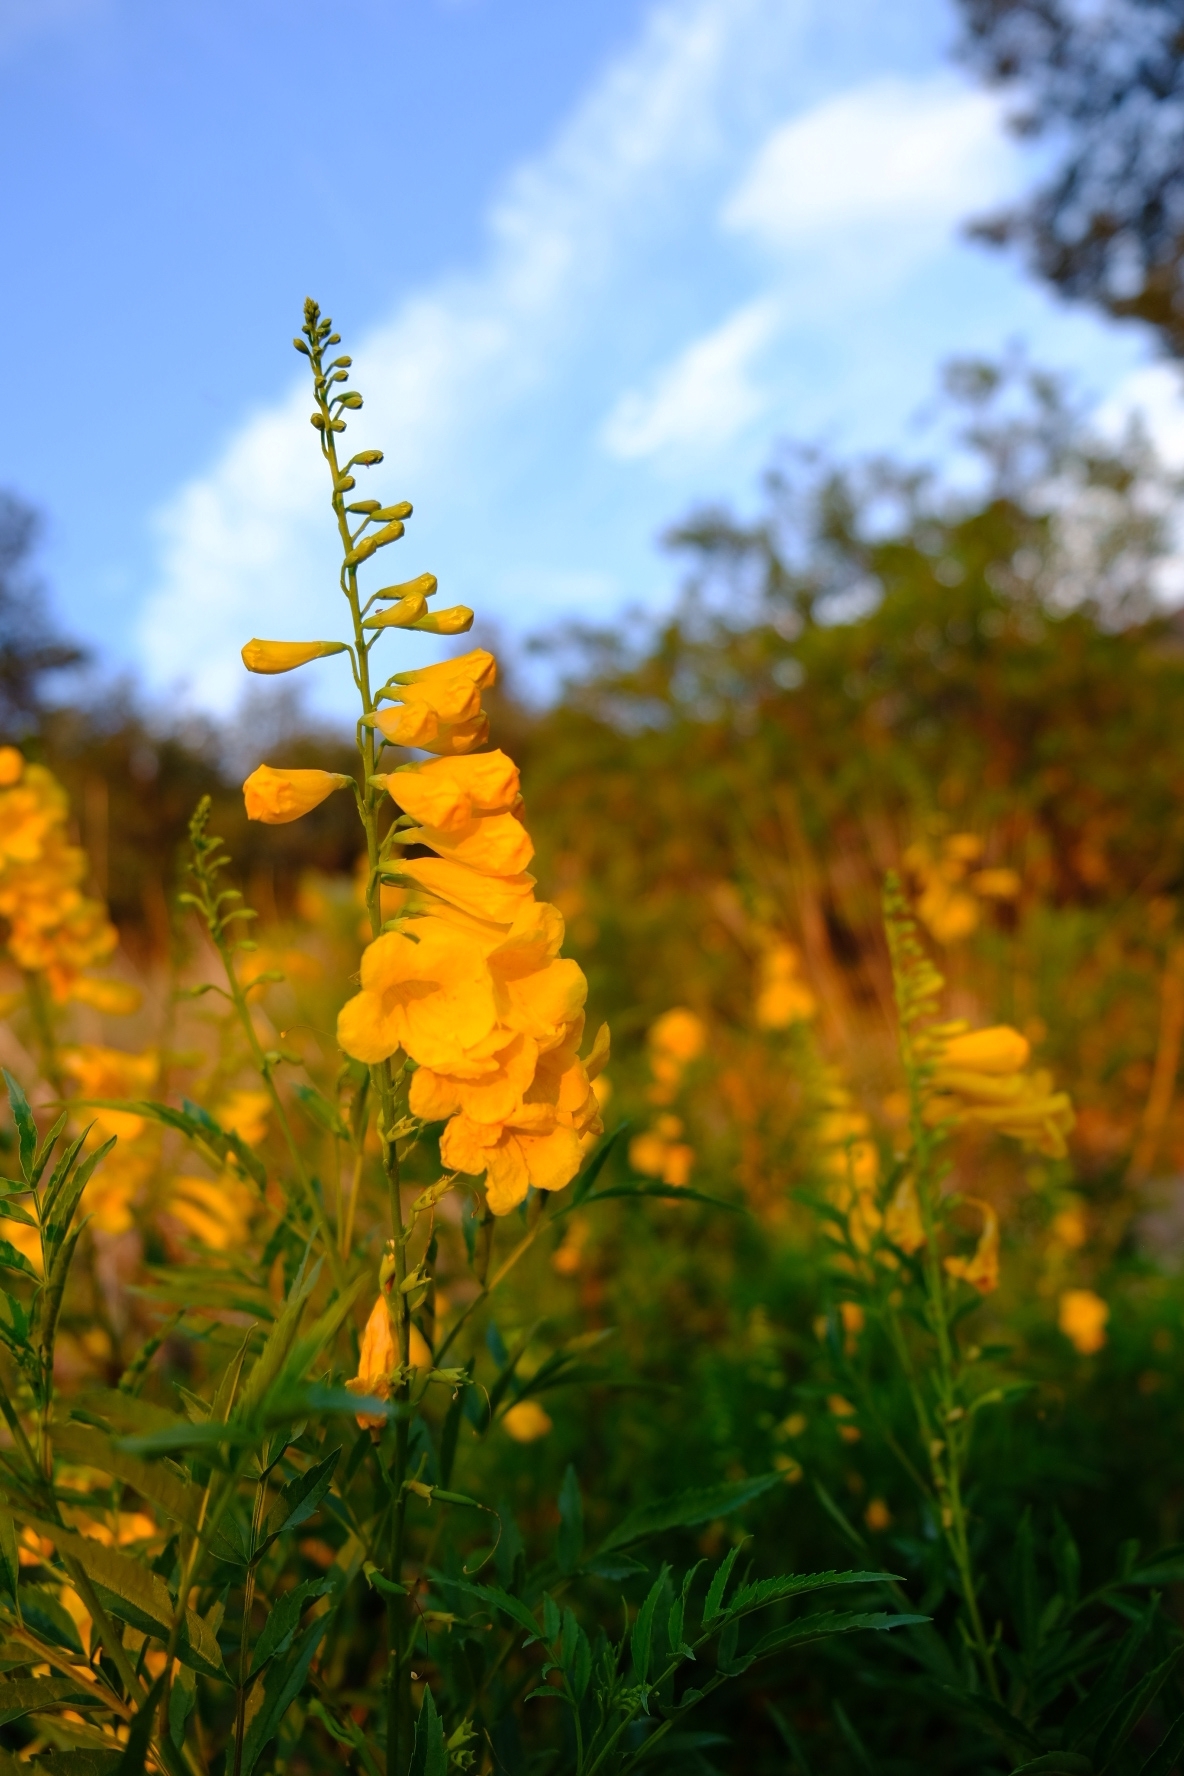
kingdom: Plantae
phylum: Tracheophyta
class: Magnoliopsida
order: Lamiales
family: Bignoniaceae
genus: Tecoma
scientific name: Tecoma stans
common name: Yellow trumpetbush
